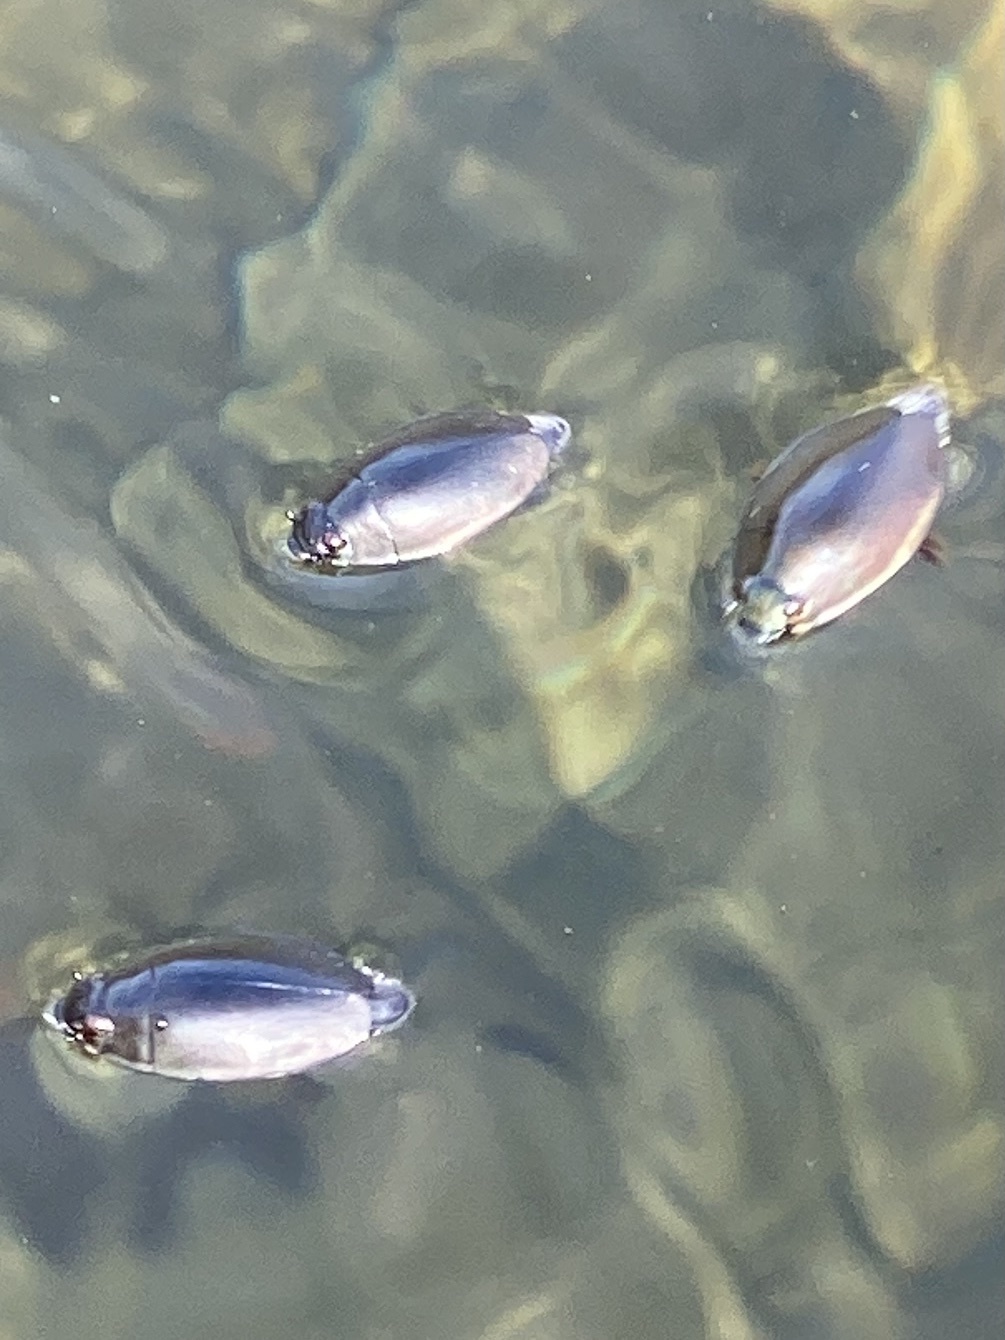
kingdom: Animalia
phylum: Arthropoda
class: Insecta
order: Coleoptera
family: Gyrinidae
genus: Dineutus
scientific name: Dineutus
